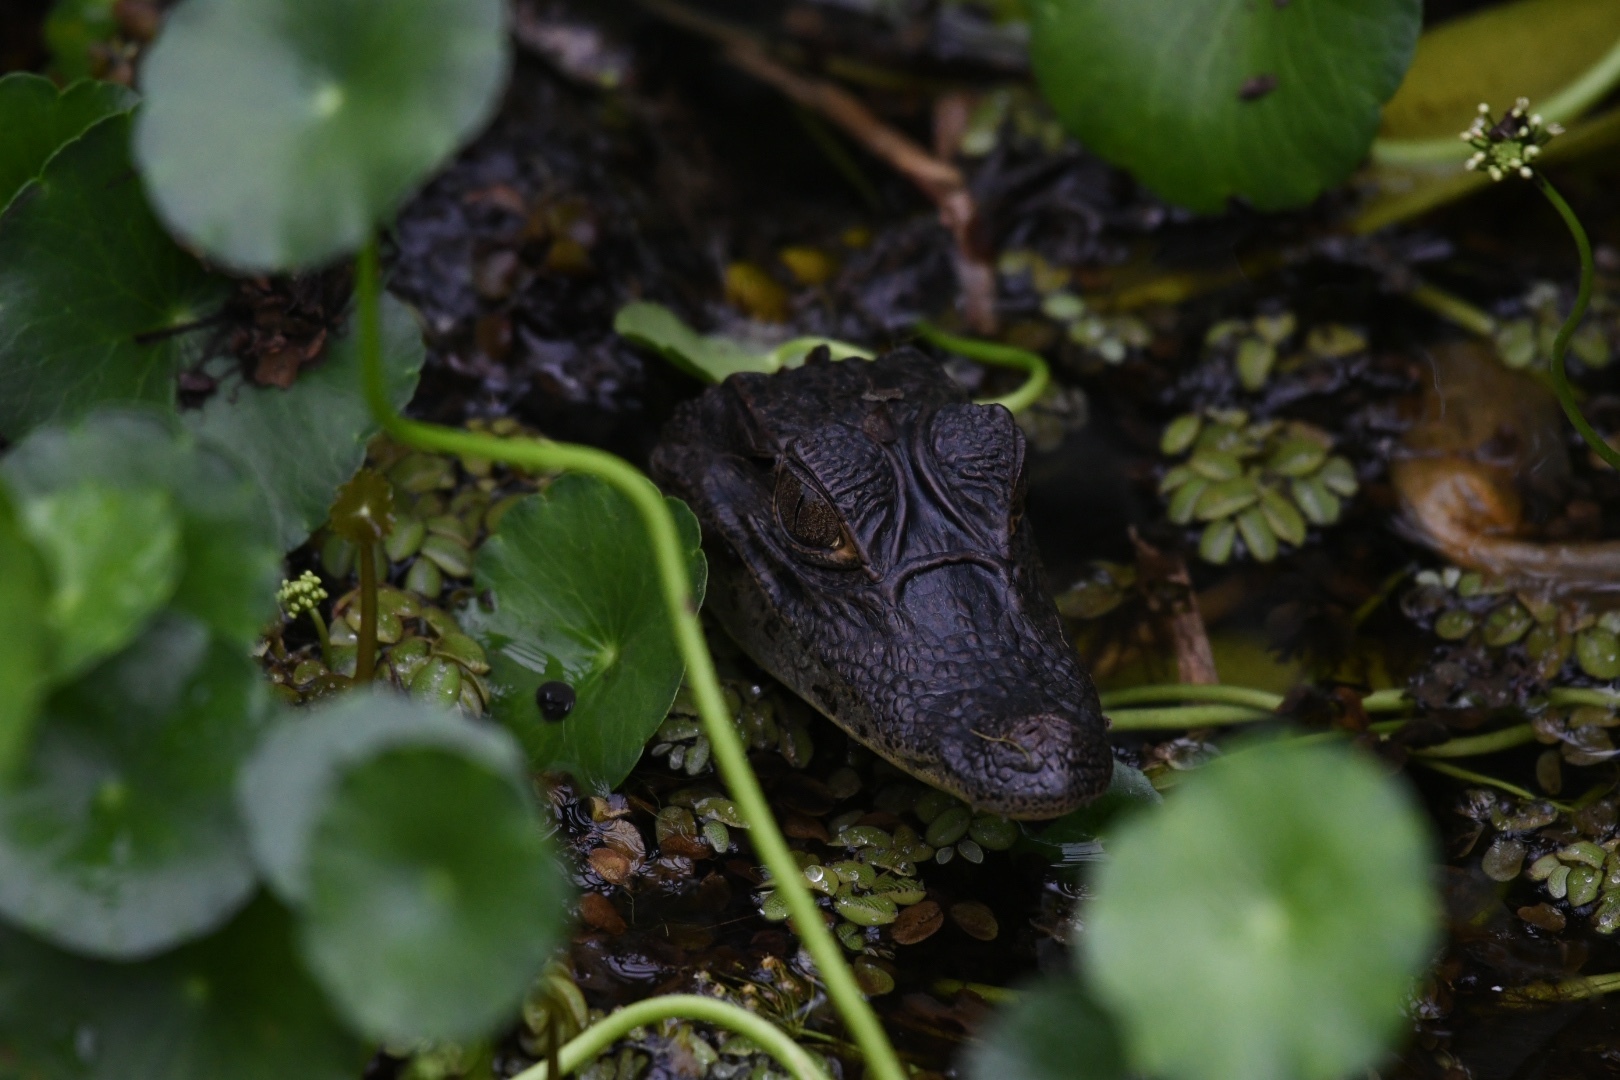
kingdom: Animalia
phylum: Chordata
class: Crocodylia
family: Alligatoridae
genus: Caiman
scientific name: Caiman crocodilus
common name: Common caiman
